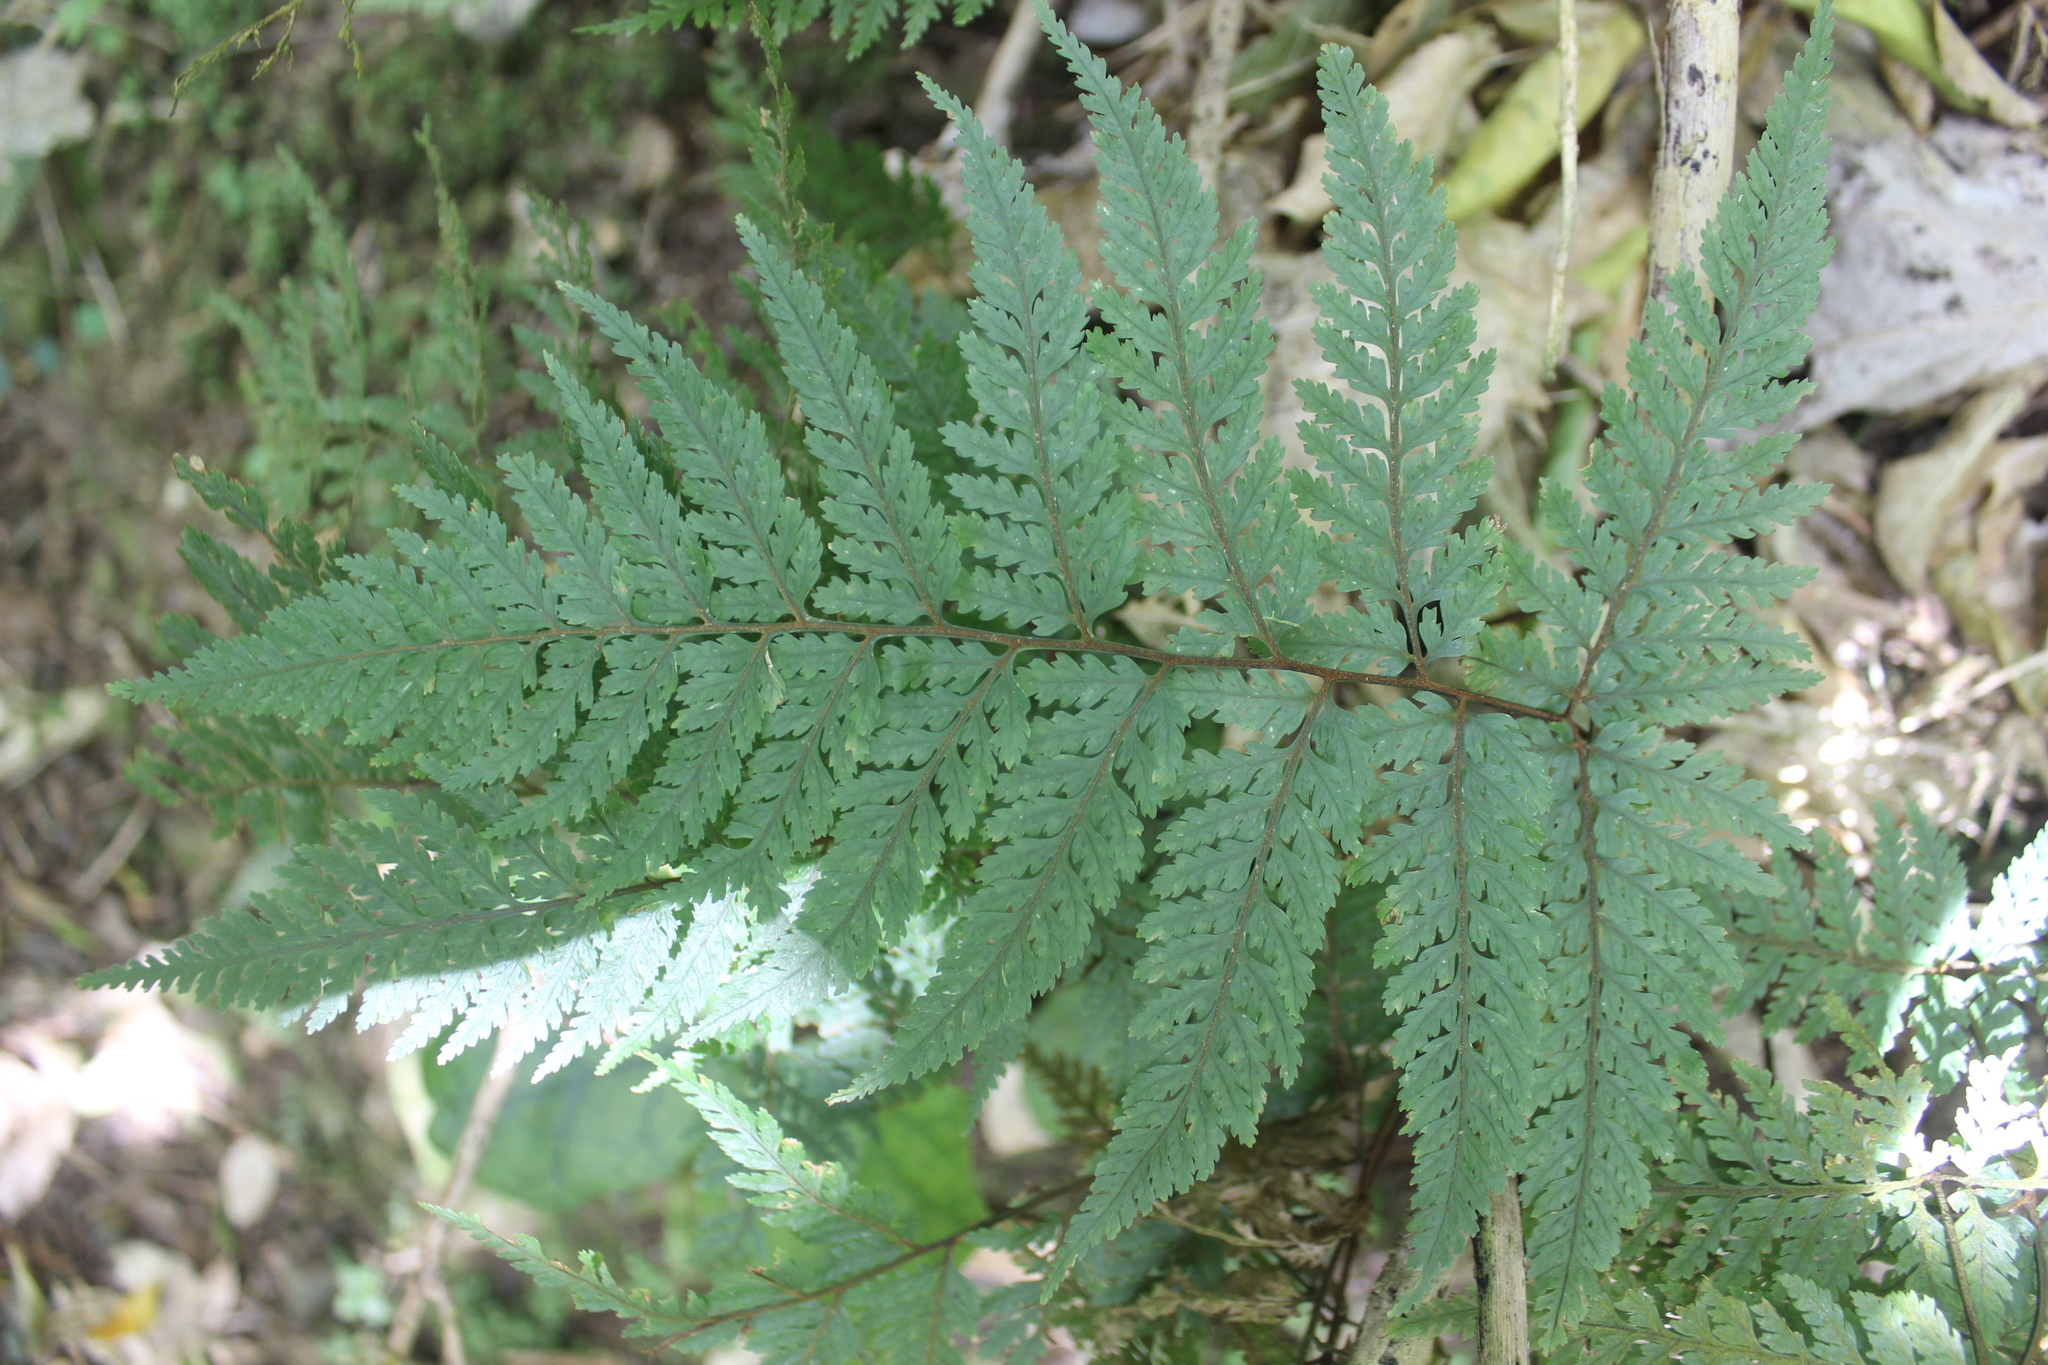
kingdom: Plantae
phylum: Tracheophyta
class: Polypodiopsida
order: Polypodiales
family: Dryopteridaceae
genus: Parapolystichum
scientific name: Parapolystichum glabellum
